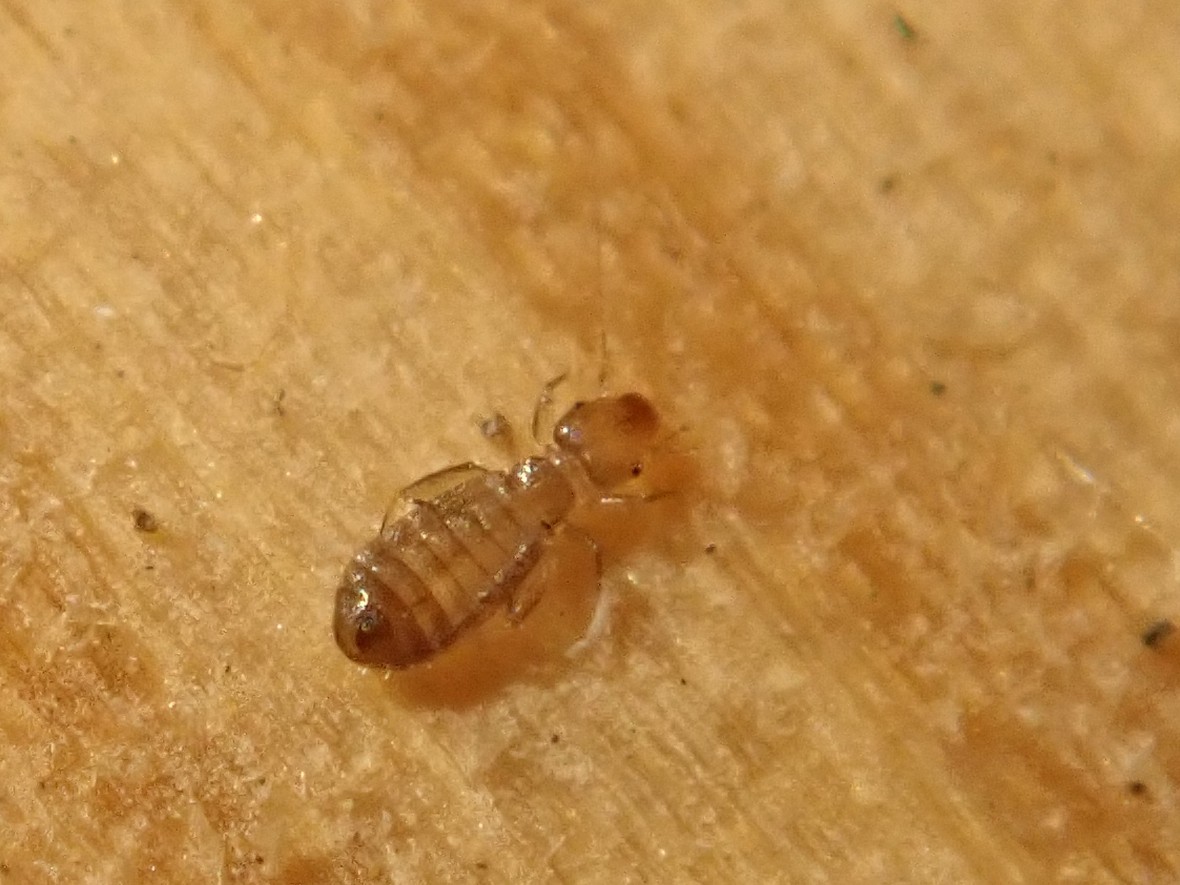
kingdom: Animalia
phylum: Arthropoda
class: Insecta
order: Psocodea
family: Liposcelididae
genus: Liposcelis
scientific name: Liposcelis bostrychophila
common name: Bark lice
